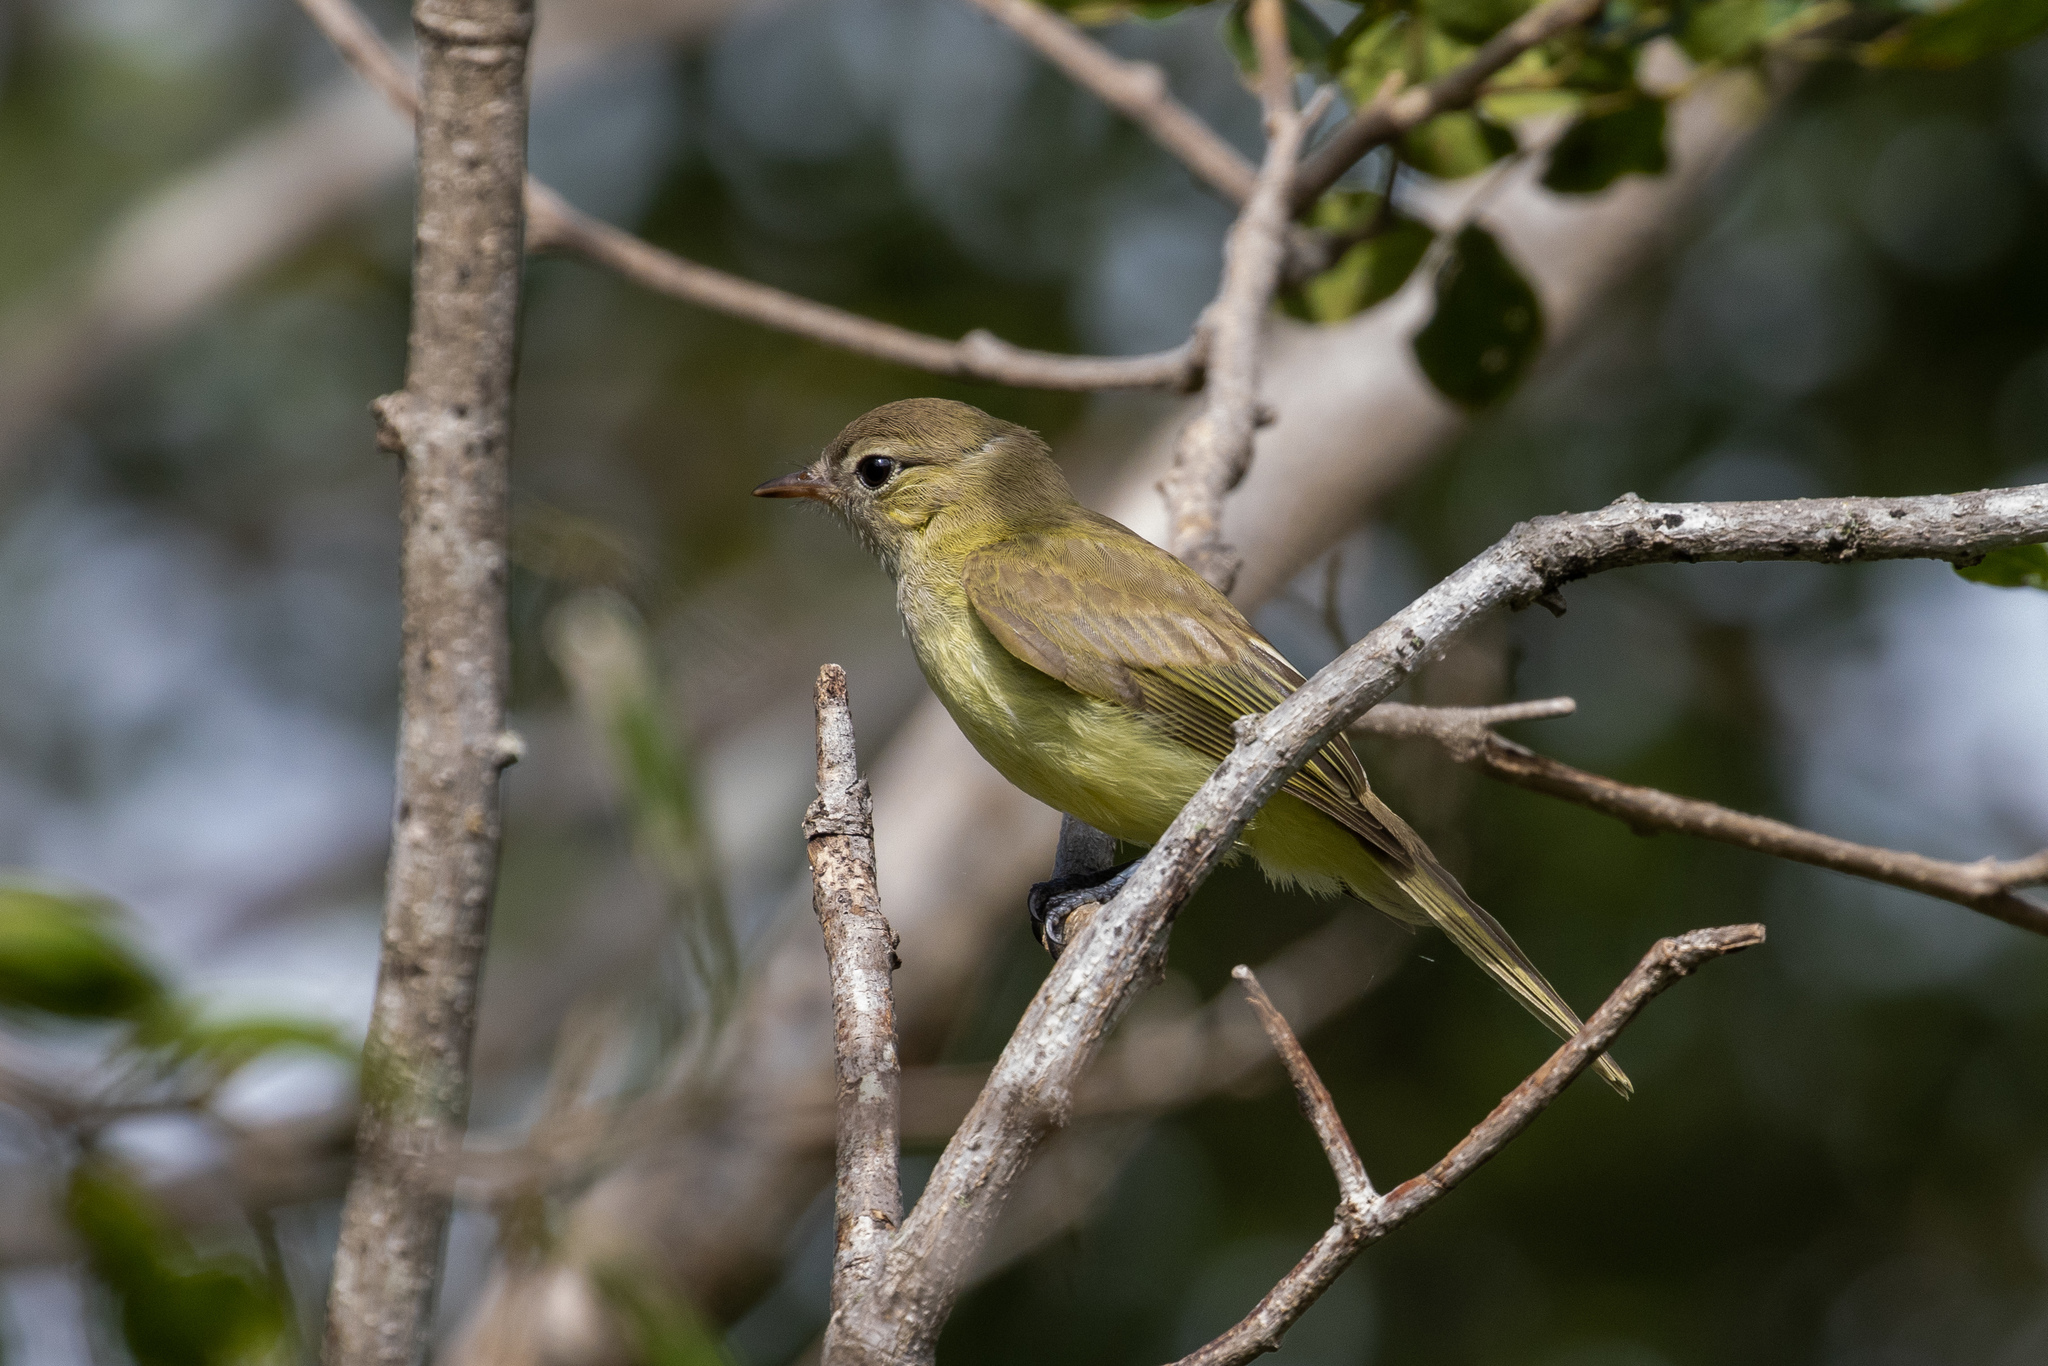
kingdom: Animalia
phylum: Chordata
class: Aves
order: Passeriformes
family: Tyrannidae
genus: Myiopagis
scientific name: Myiopagis viridicata
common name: Greenish elaenia
